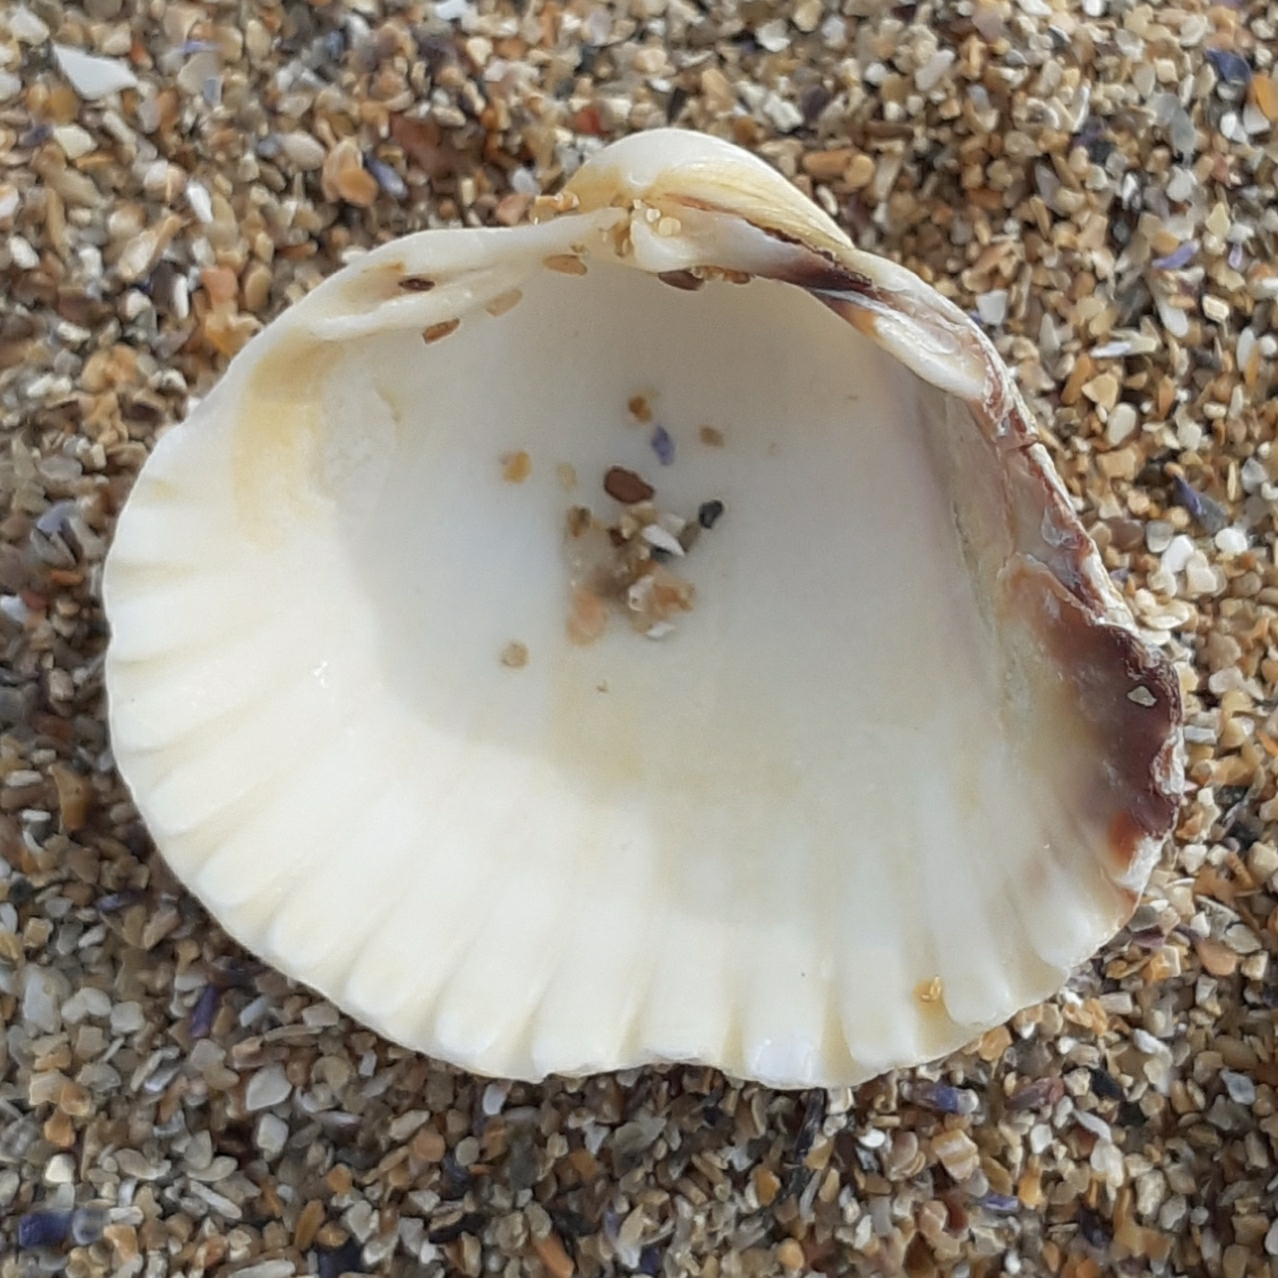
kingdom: Animalia
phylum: Mollusca
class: Bivalvia
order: Cardiida
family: Cardiidae
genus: Cerastoderma
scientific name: Cerastoderma edule
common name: Common cockle
